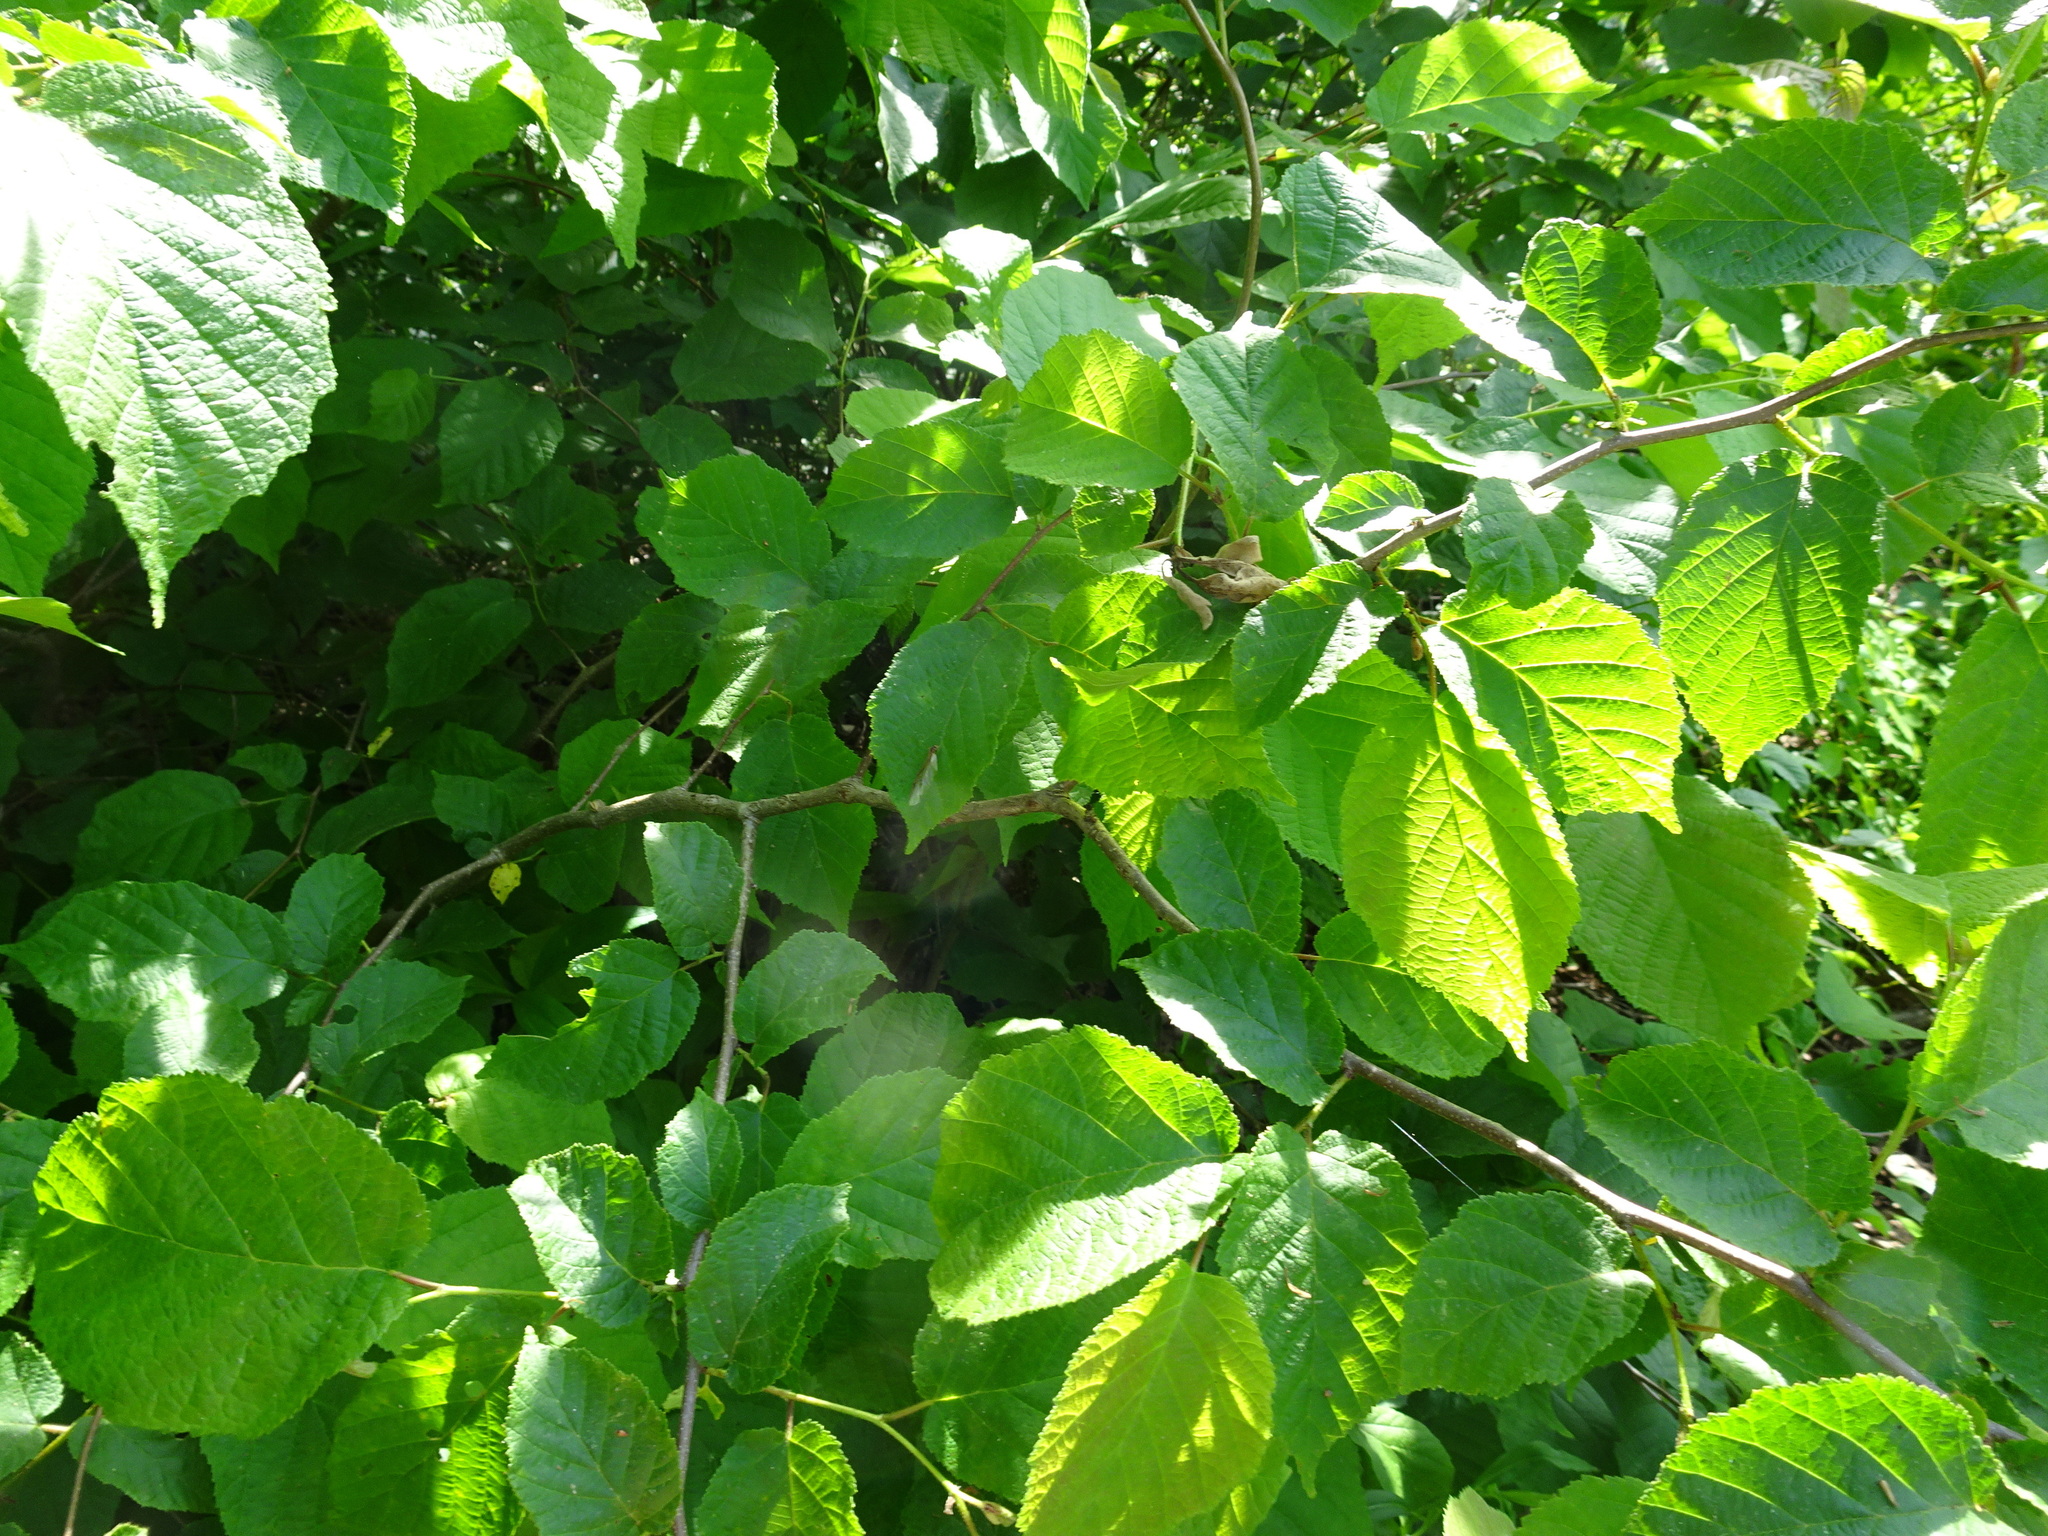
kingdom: Plantae
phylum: Tracheophyta
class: Magnoliopsida
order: Fagales
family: Betulaceae
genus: Corylus
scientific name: Corylus americana
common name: American hazel
